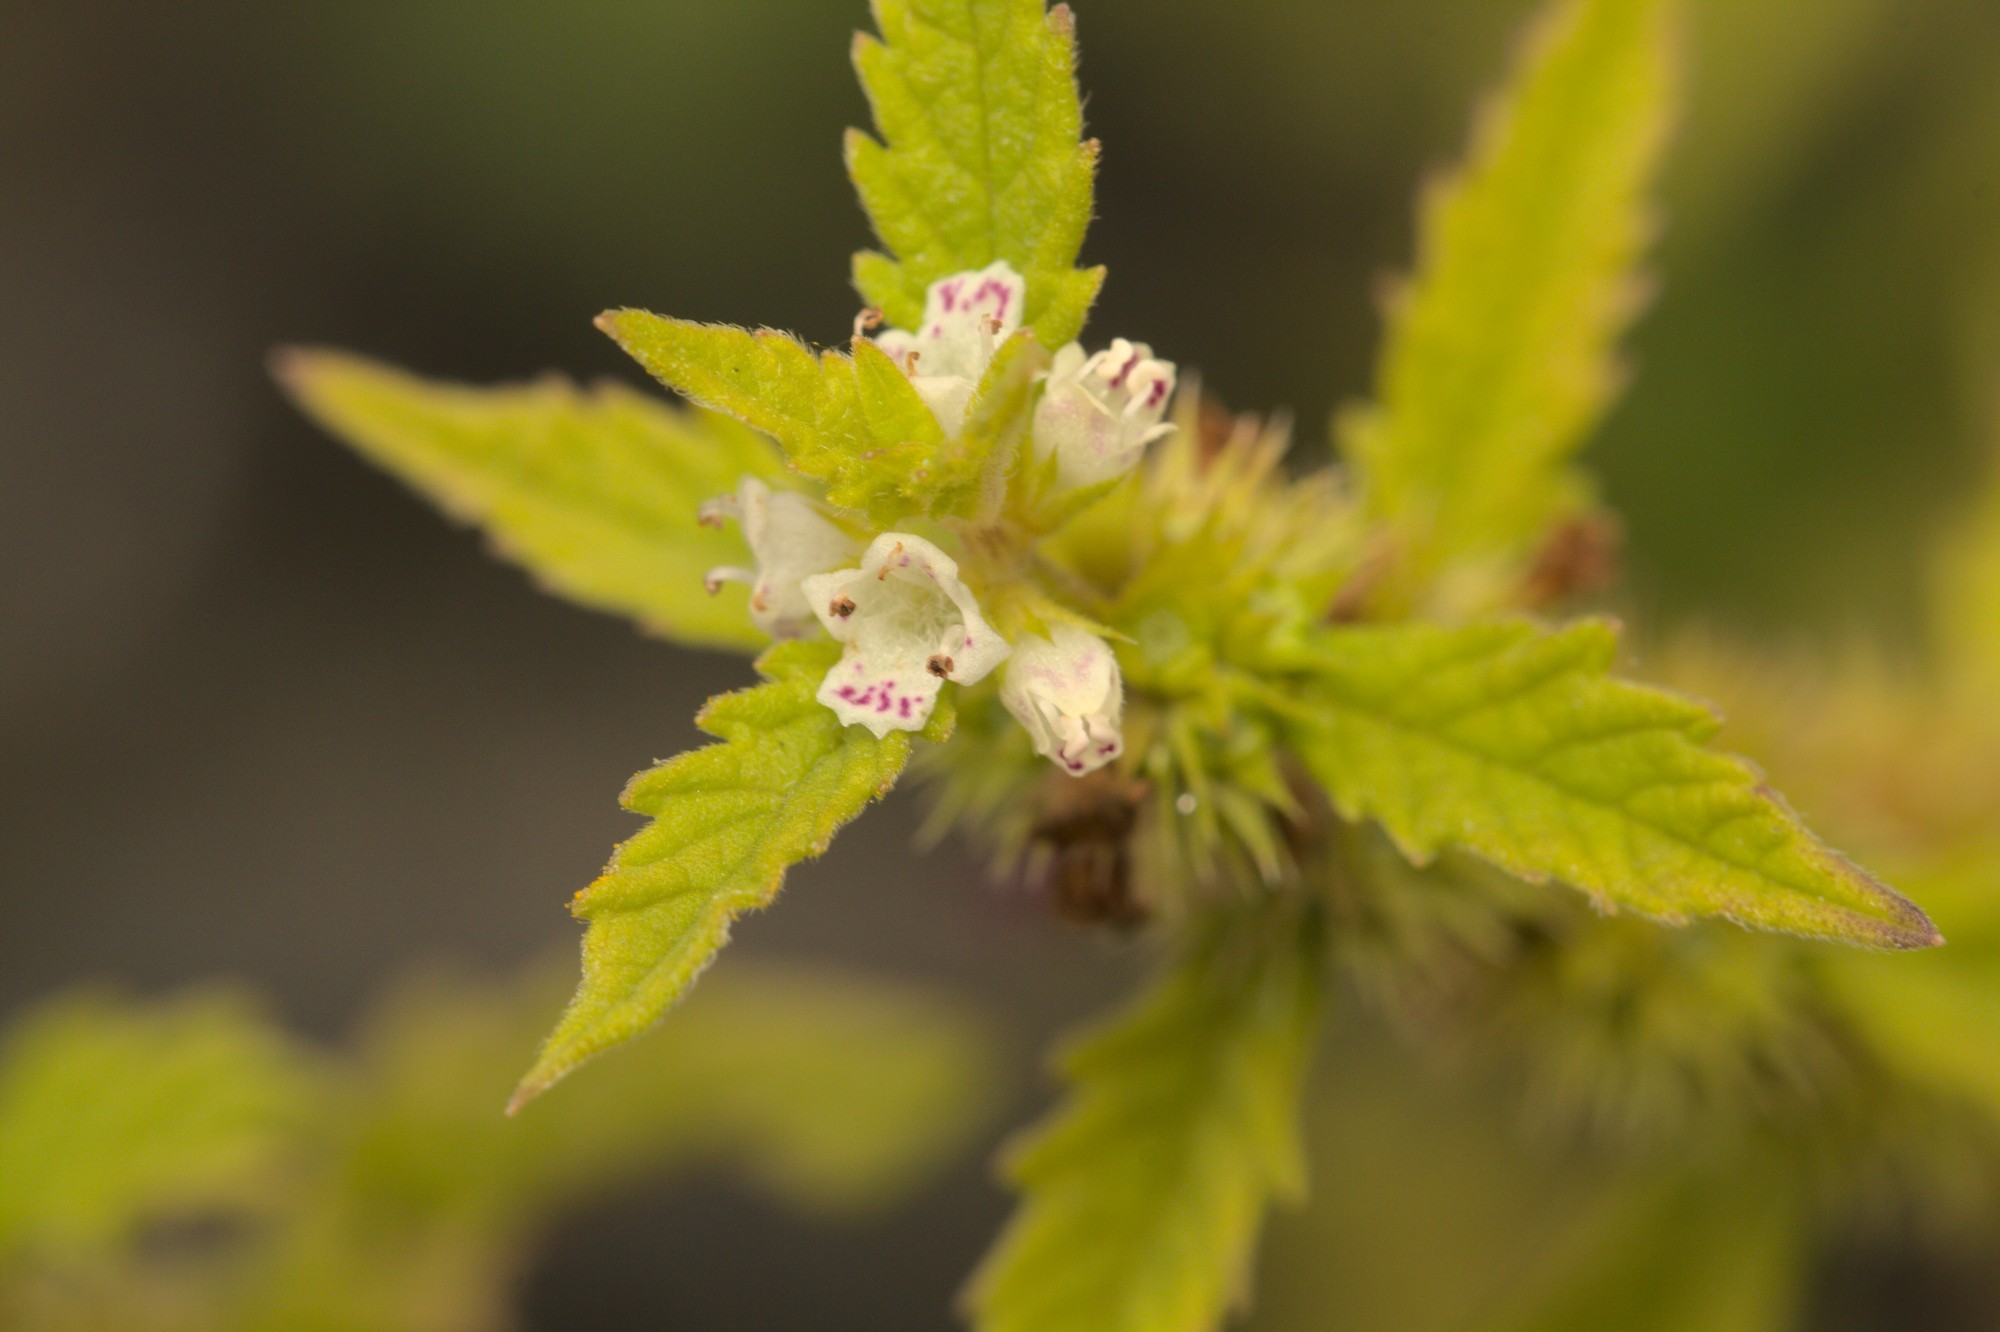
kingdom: Plantae
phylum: Tracheophyta
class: Magnoliopsida
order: Lamiales
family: Lamiaceae
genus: Galeopsis
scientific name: Galeopsis tetrahit
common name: Common hemp-nettle
